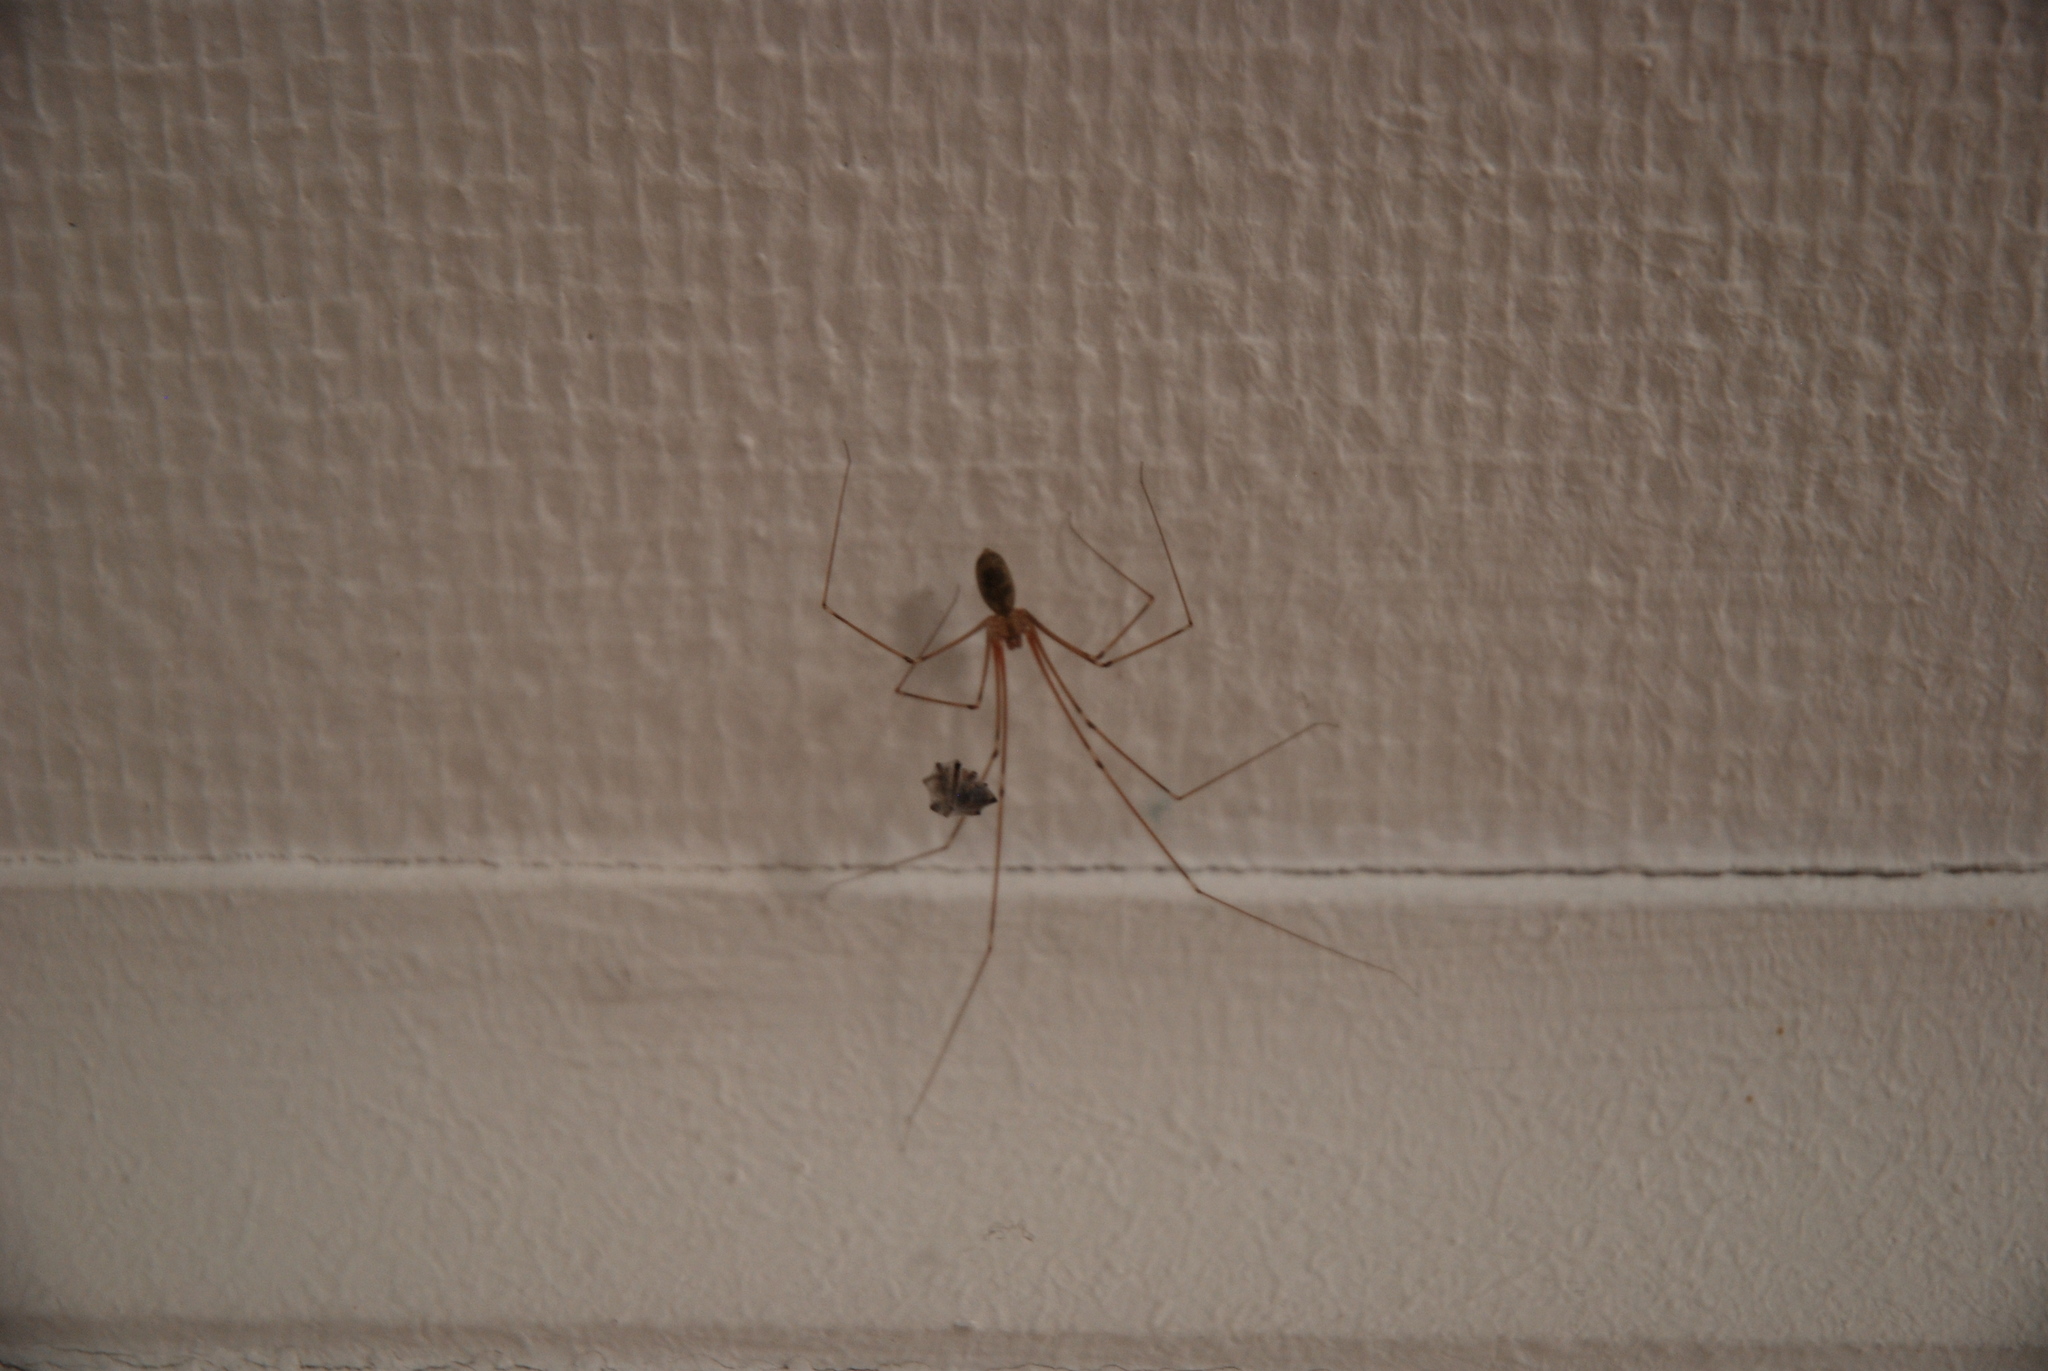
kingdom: Animalia
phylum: Arthropoda
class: Arachnida
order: Araneae
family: Pholcidae
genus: Pholcus
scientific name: Pholcus phalangioides
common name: Longbodied cellar spider
